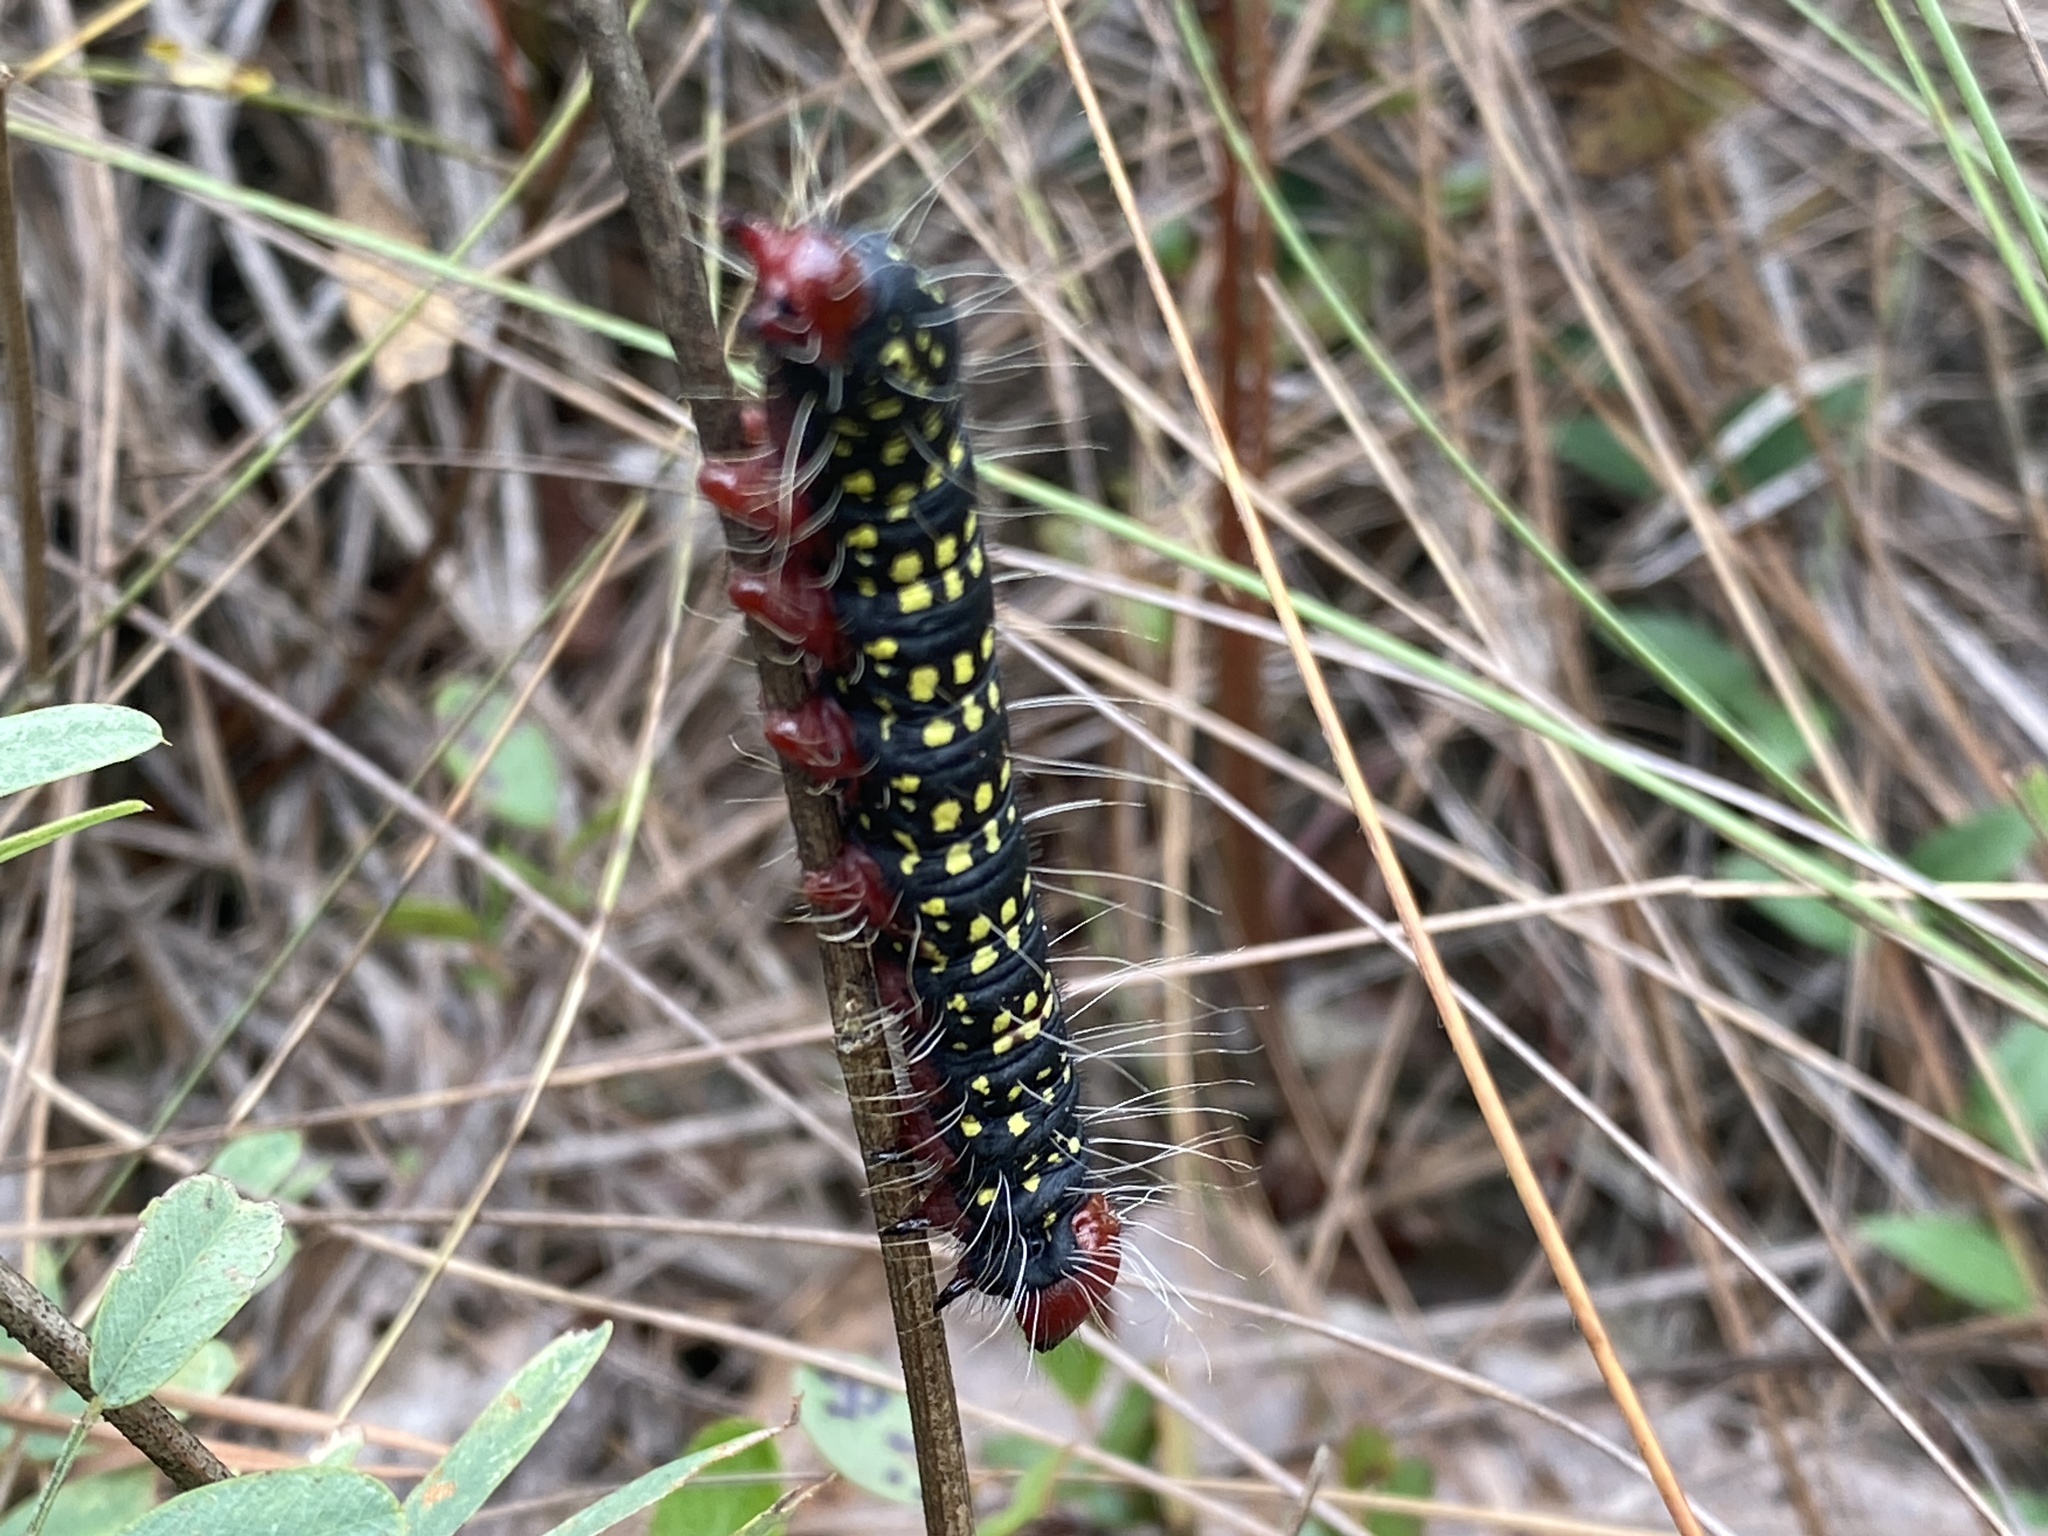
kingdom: Animalia
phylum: Arthropoda
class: Insecta
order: Lepidoptera
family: Notodontidae
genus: Datana
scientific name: Datana major
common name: Azalea caterpillar
